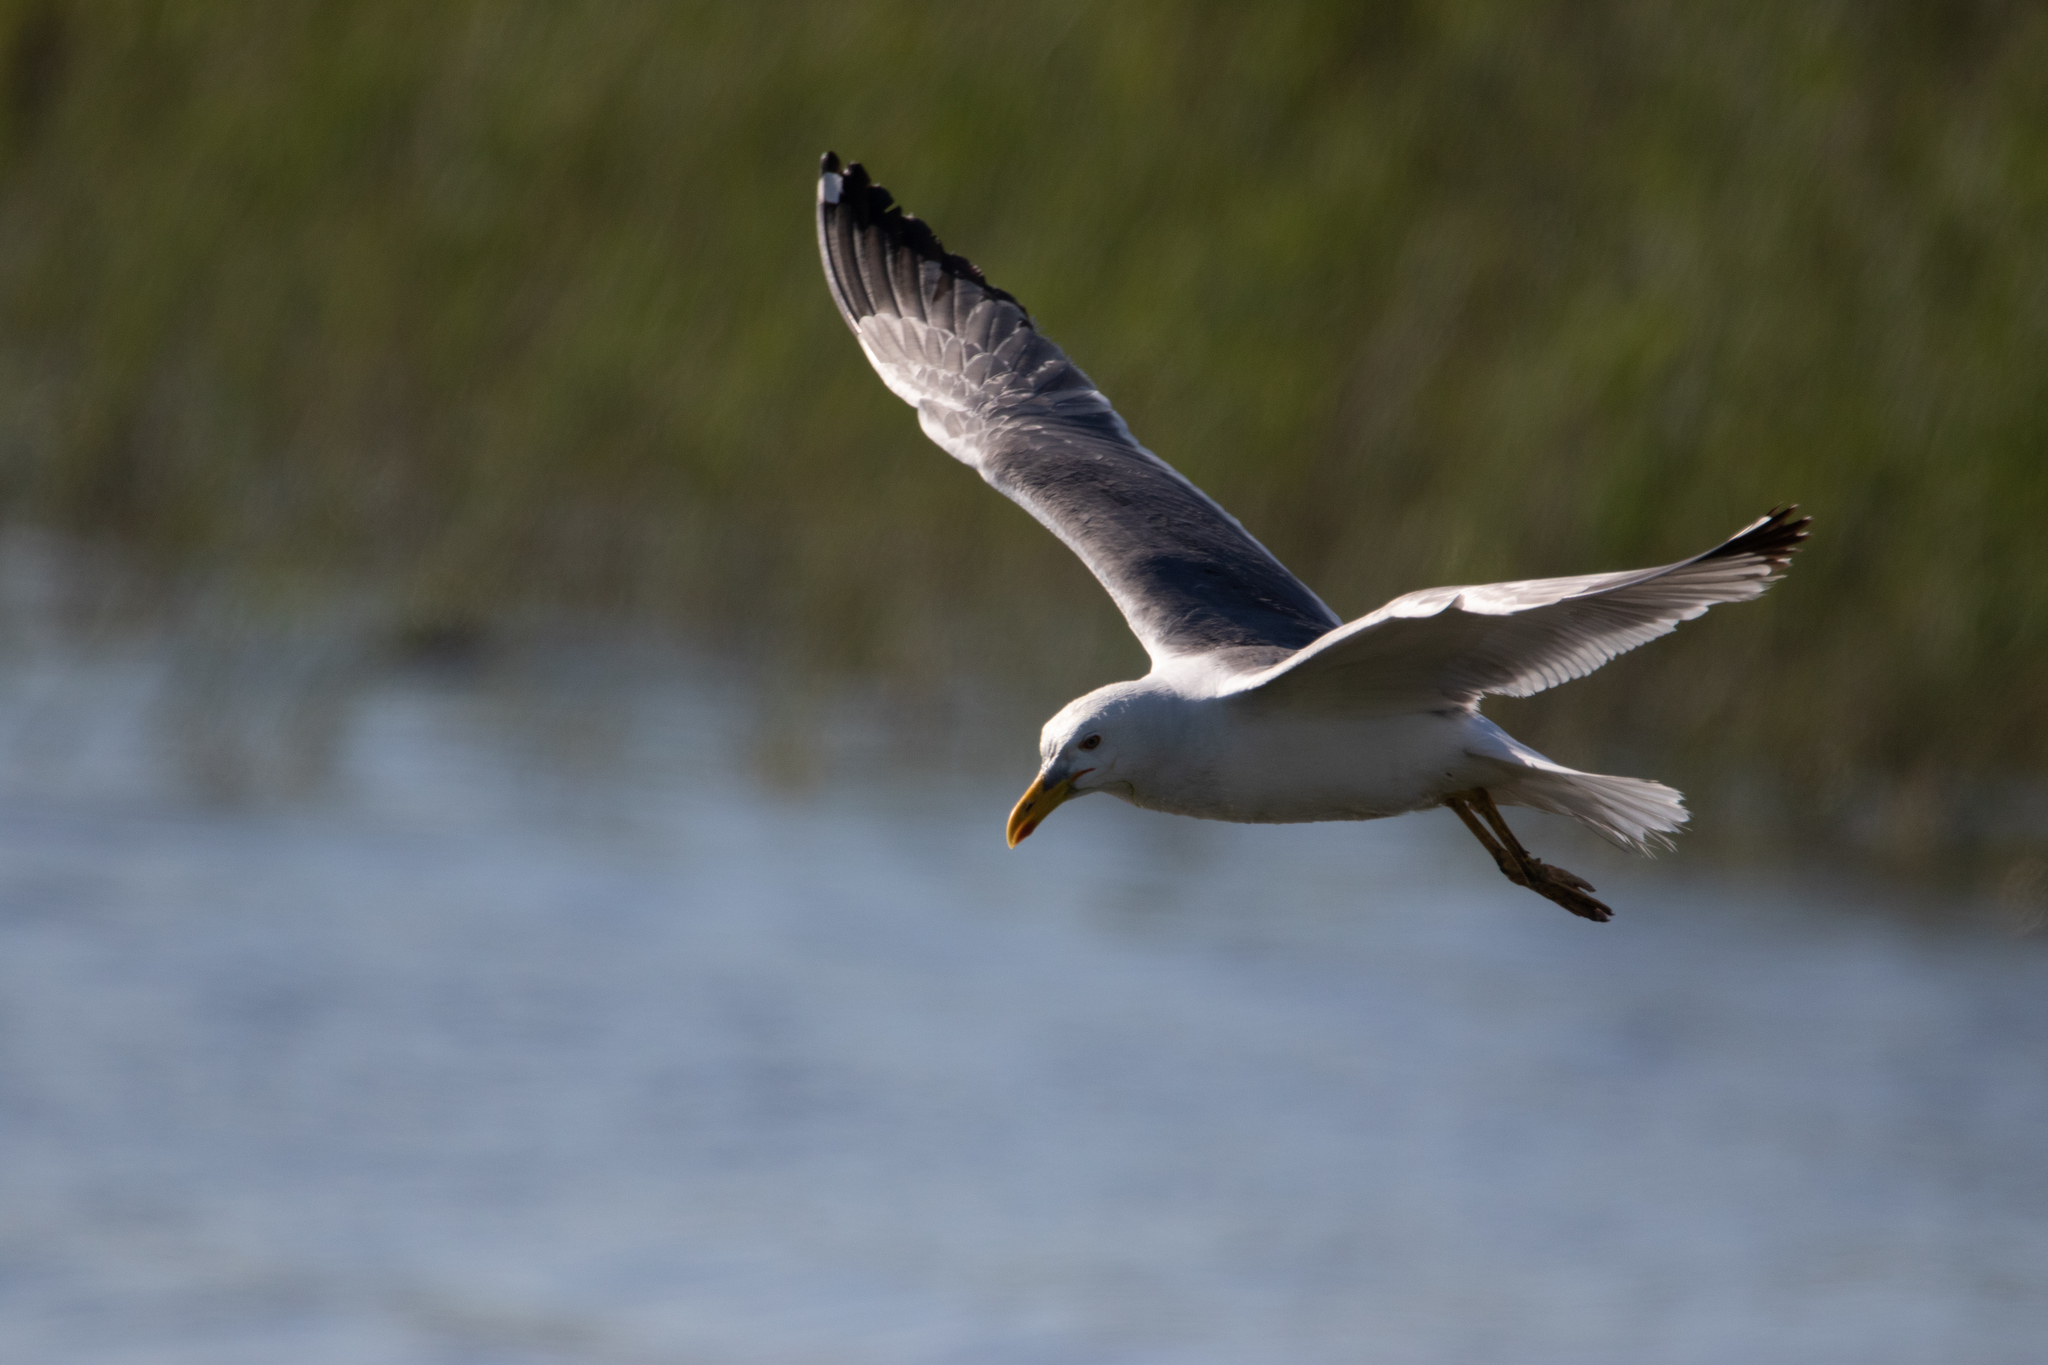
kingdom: Animalia
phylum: Chordata
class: Aves
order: Charadriiformes
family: Laridae
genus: Larus
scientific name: Larus fuscus
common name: Lesser black-backed gull
